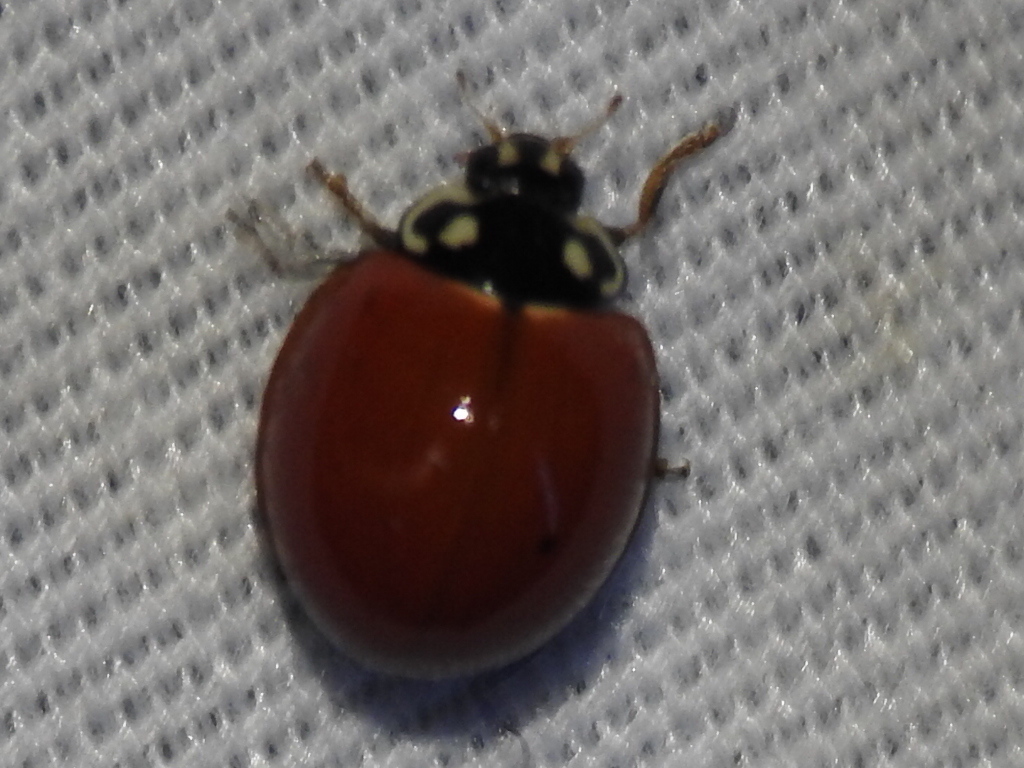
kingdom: Animalia
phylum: Arthropoda
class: Insecta
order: Coleoptera
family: Coccinellidae
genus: Cycloneda
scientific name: Cycloneda sanguinea
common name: Ladybird beetle
